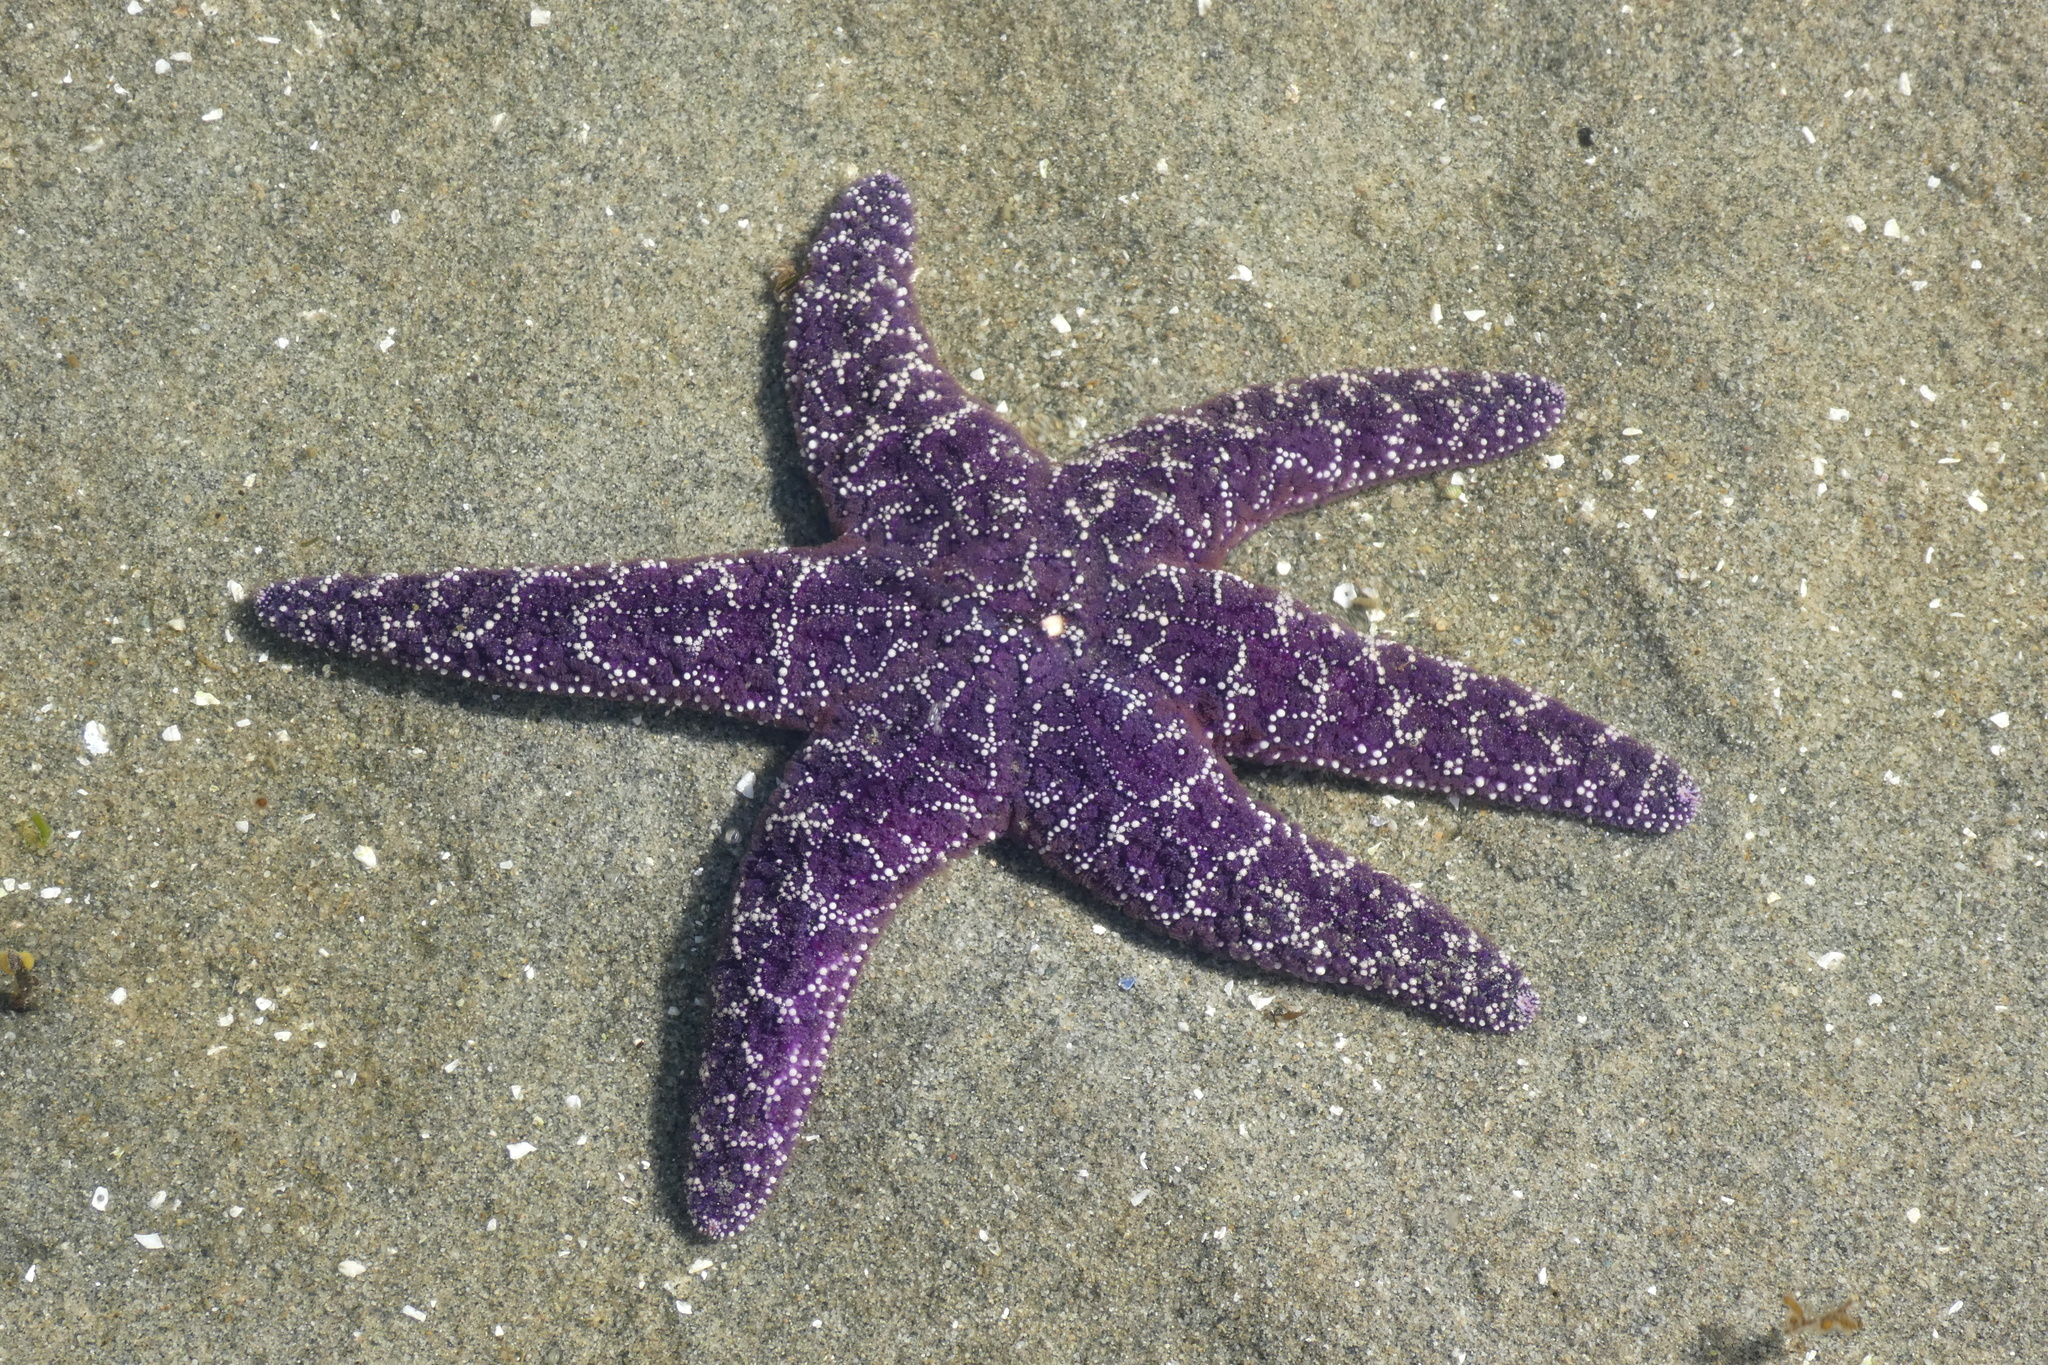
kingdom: Animalia
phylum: Echinodermata
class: Asteroidea
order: Forcipulatida
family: Asteriidae
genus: Pisaster
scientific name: Pisaster ochraceus
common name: Ochre stars
